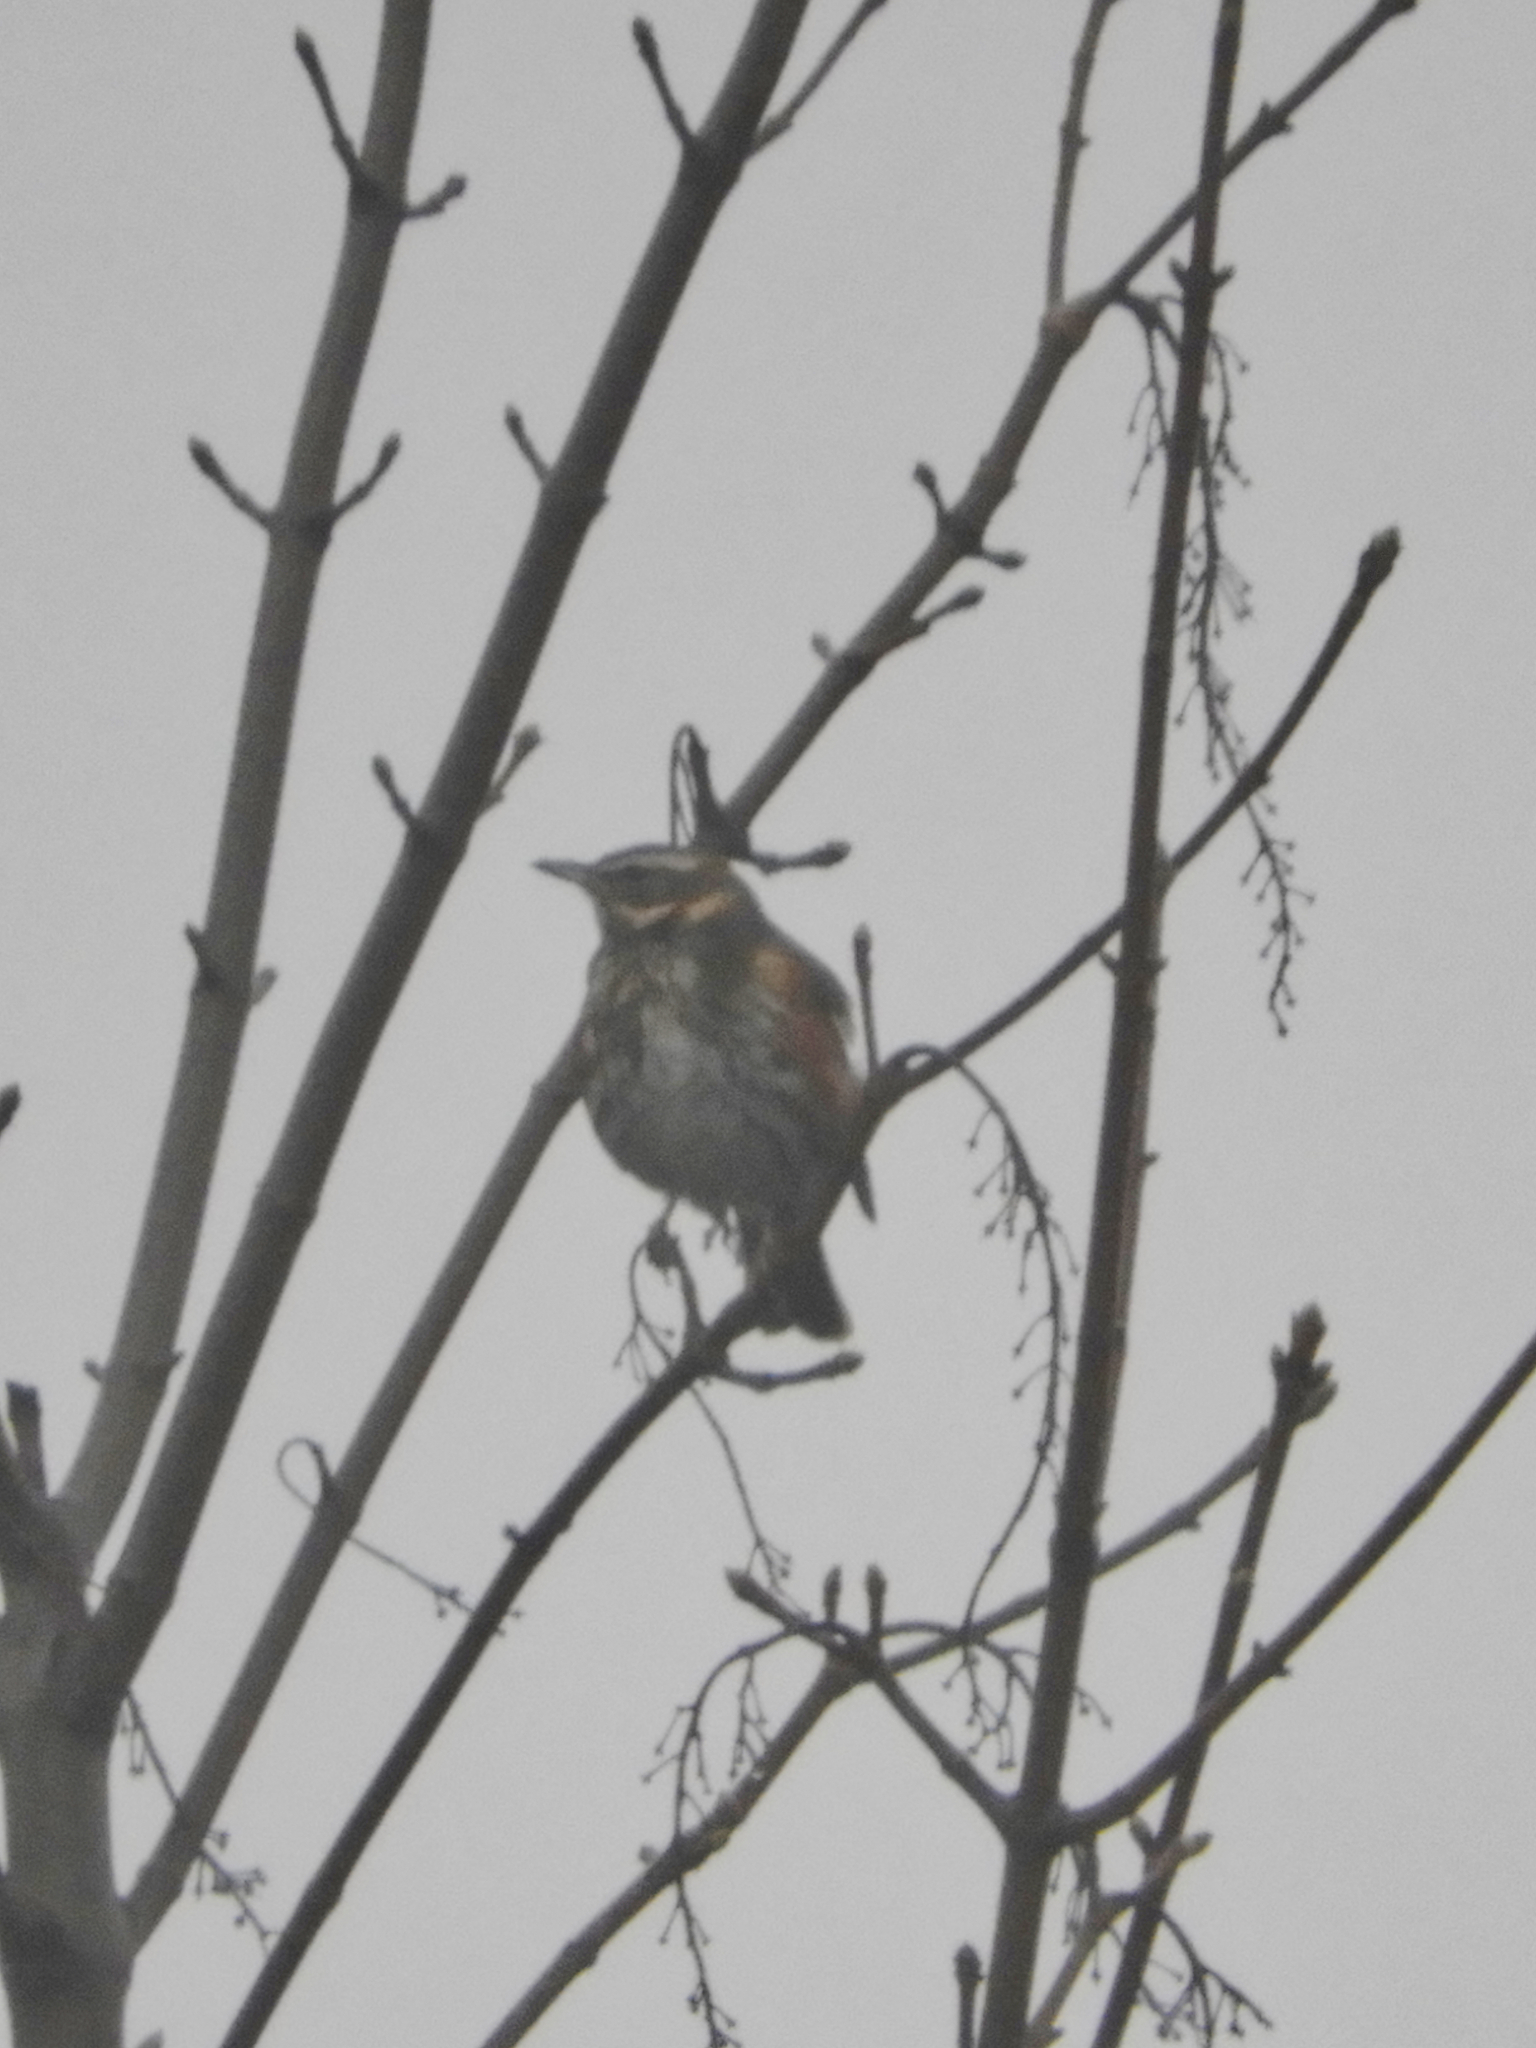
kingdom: Animalia
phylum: Chordata
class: Aves
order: Passeriformes
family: Turdidae
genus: Turdus
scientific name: Turdus iliacus
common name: Redwing
